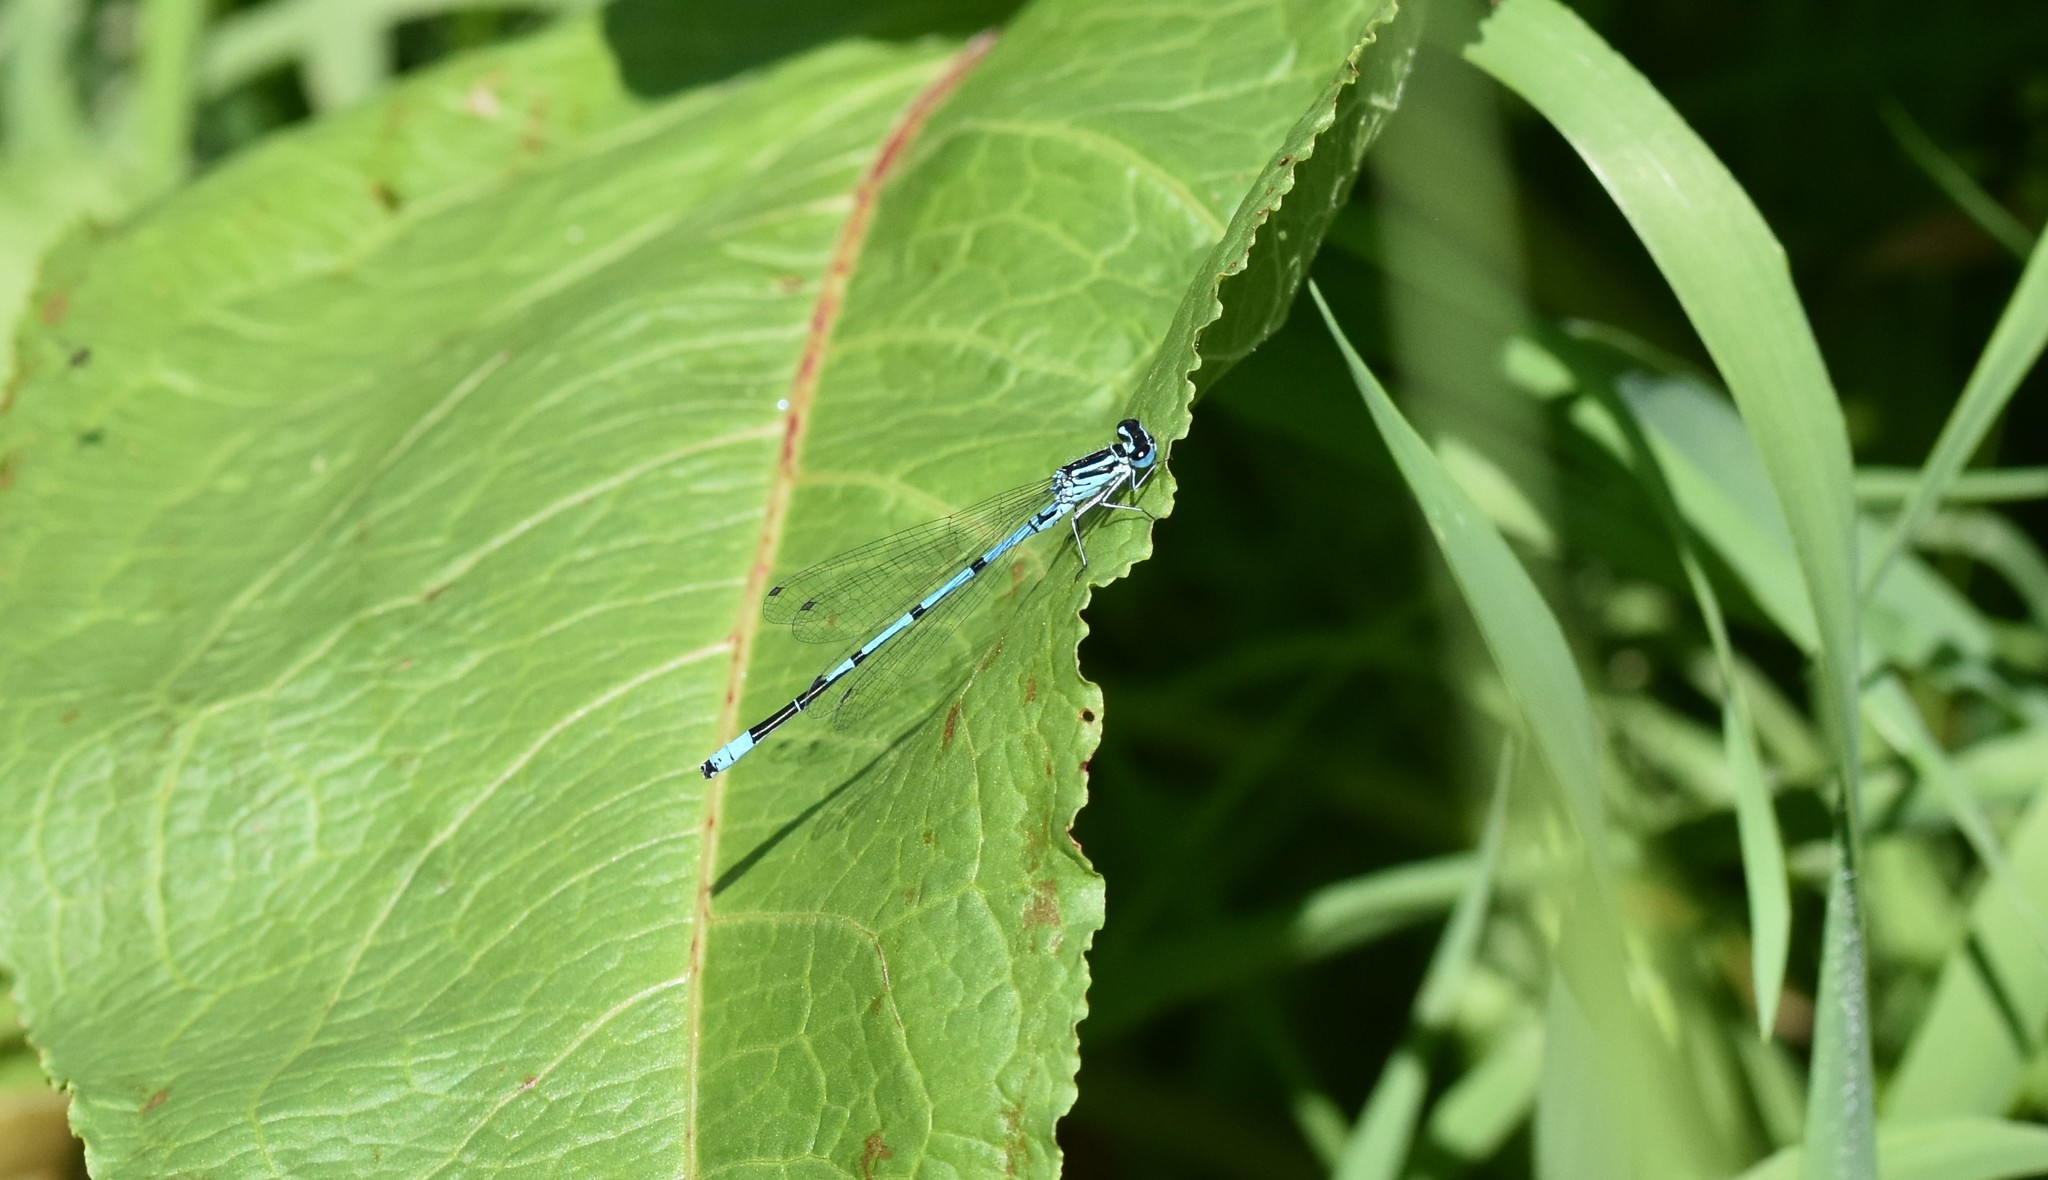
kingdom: Animalia
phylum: Arthropoda
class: Insecta
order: Odonata
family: Coenagrionidae
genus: Coenagrion
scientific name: Coenagrion puella
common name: Azure damselfly
